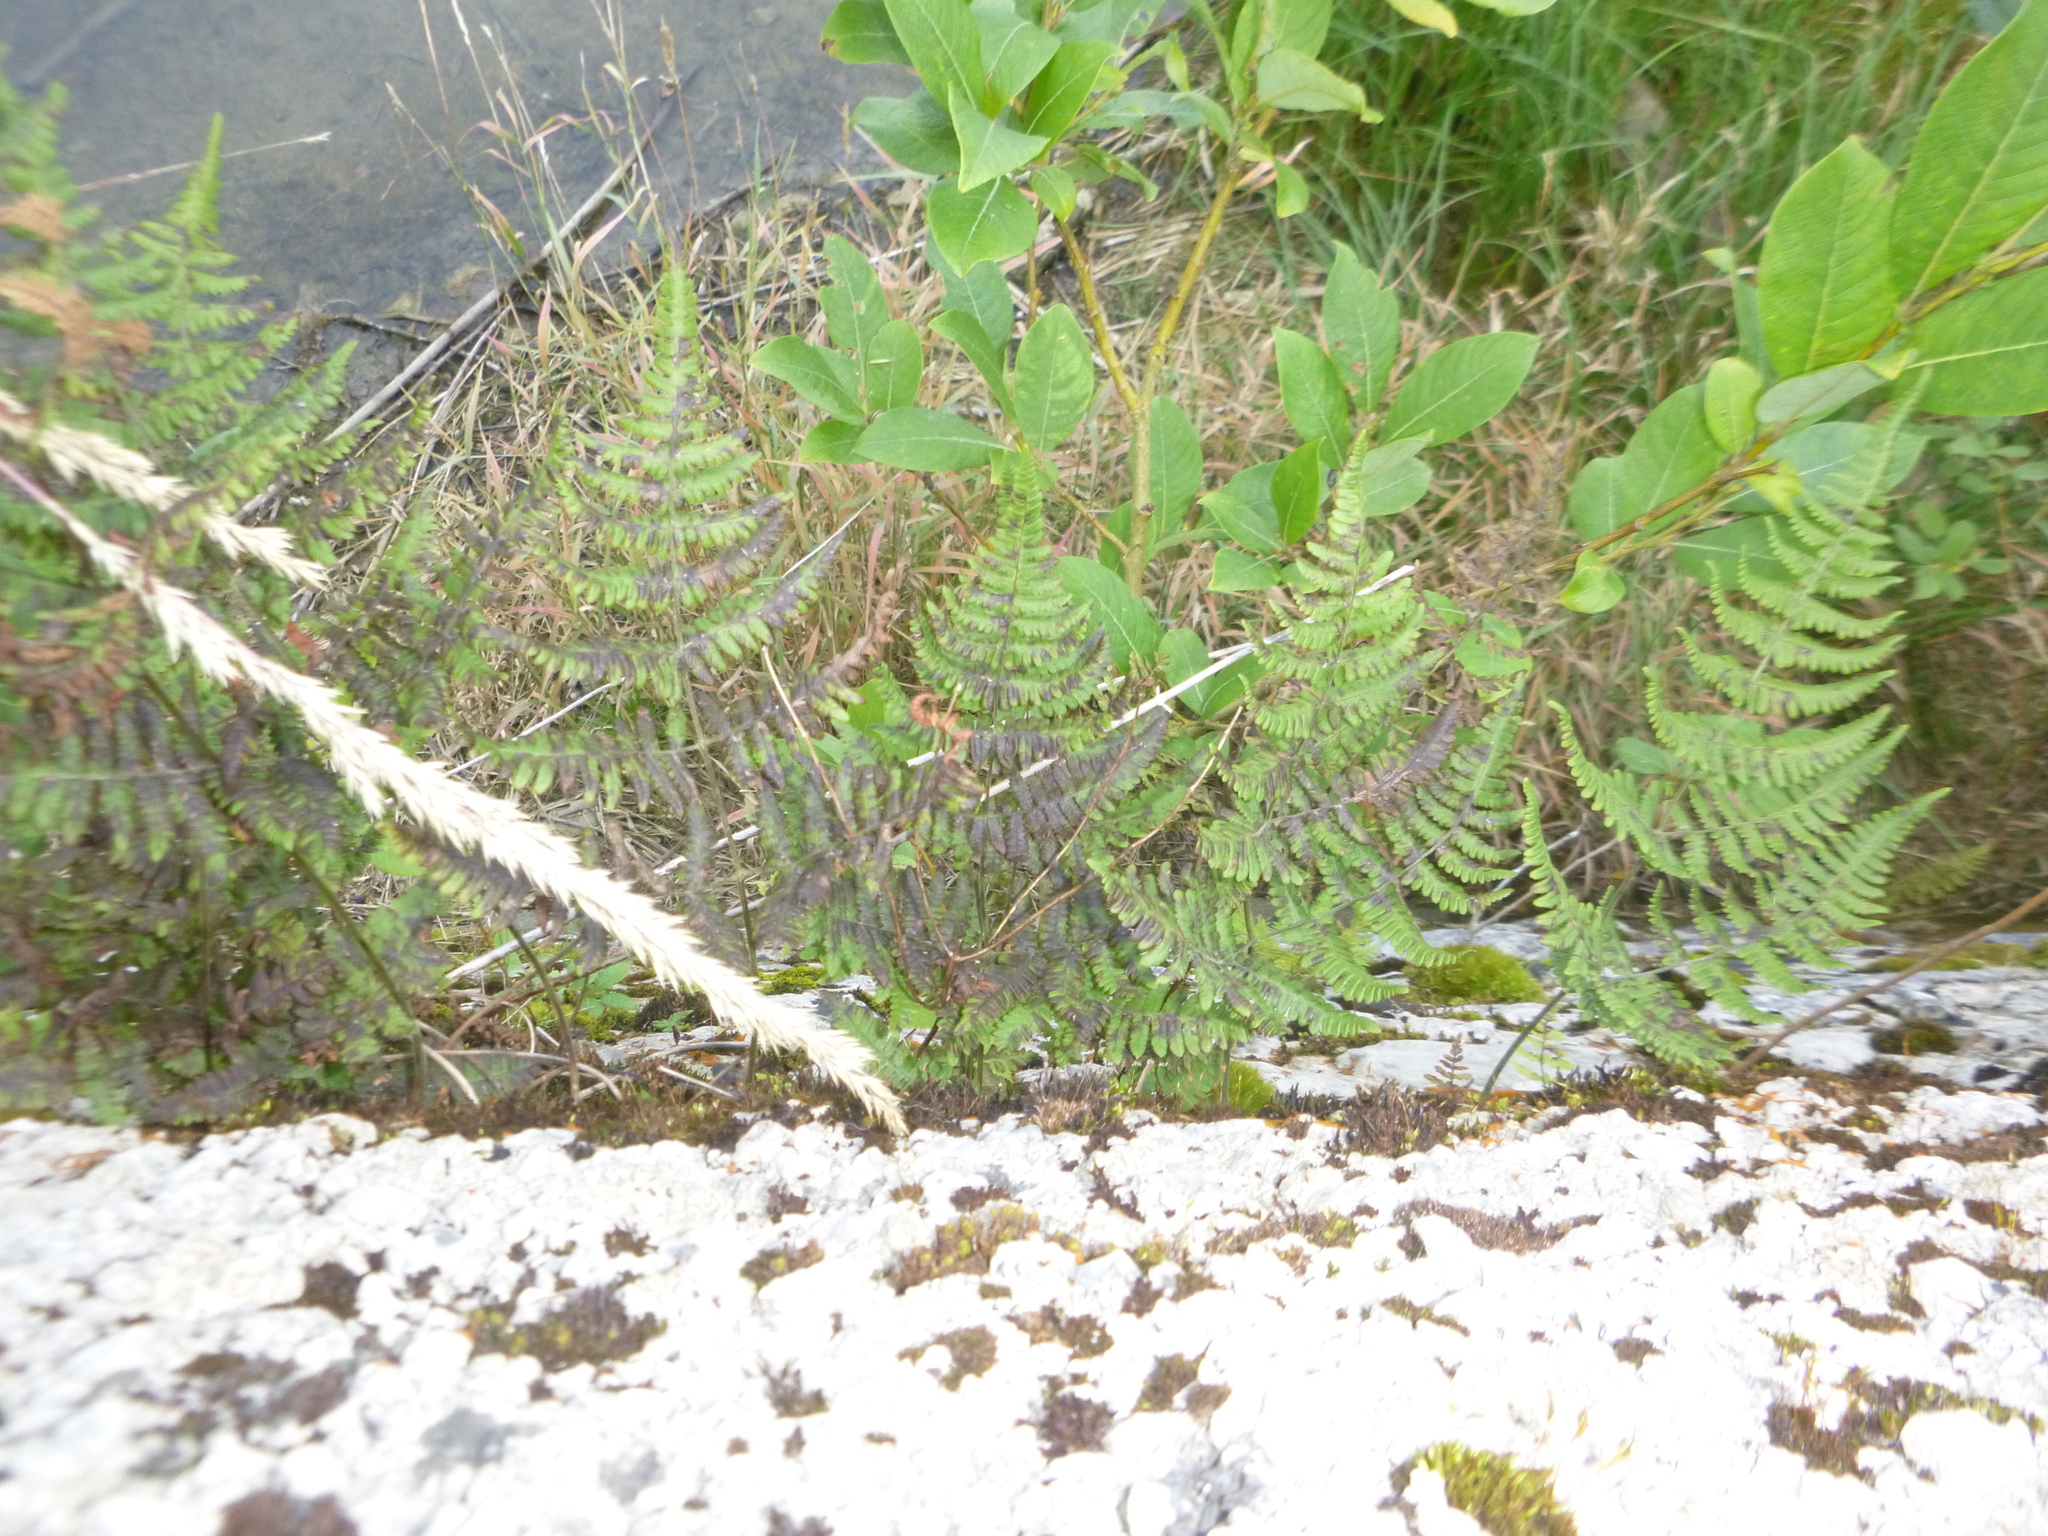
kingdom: Plantae
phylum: Tracheophyta
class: Polypodiopsida
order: Polypodiales
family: Cystopteridaceae
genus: Gymnocarpium
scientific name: Gymnocarpium robertianum
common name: Limestone fern
